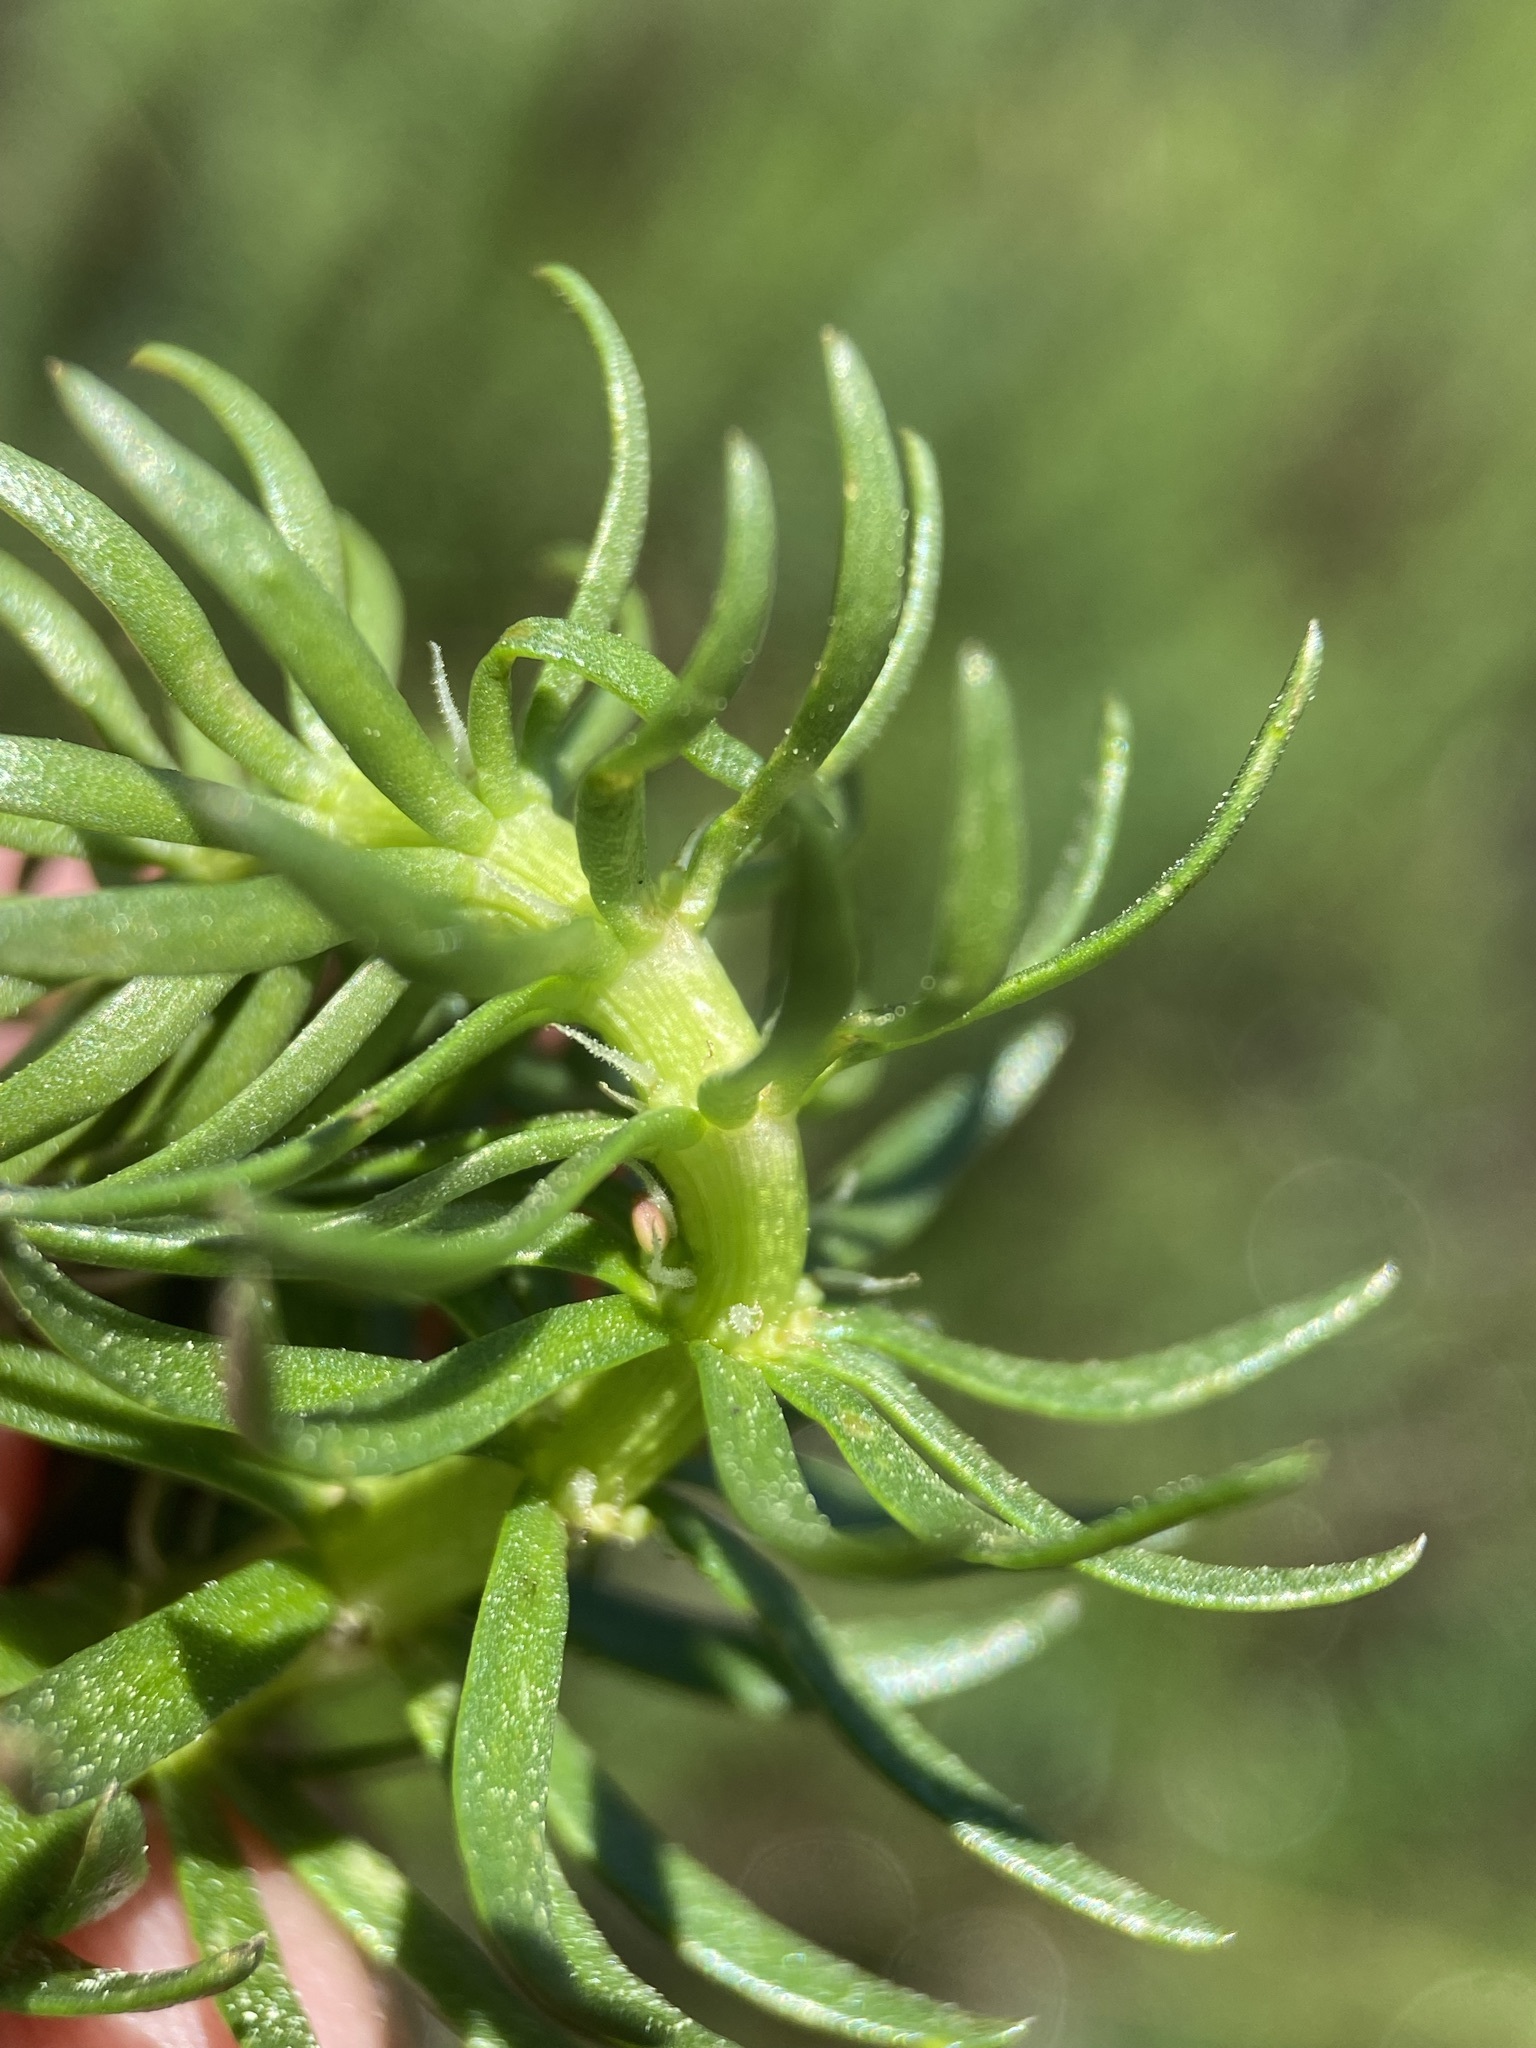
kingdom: Plantae
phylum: Tracheophyta
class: Magnoliopsida
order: Lamiales
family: Plantaginaceae
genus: Hippuris
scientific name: Hippuris vulgaris
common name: Mare's-tail
